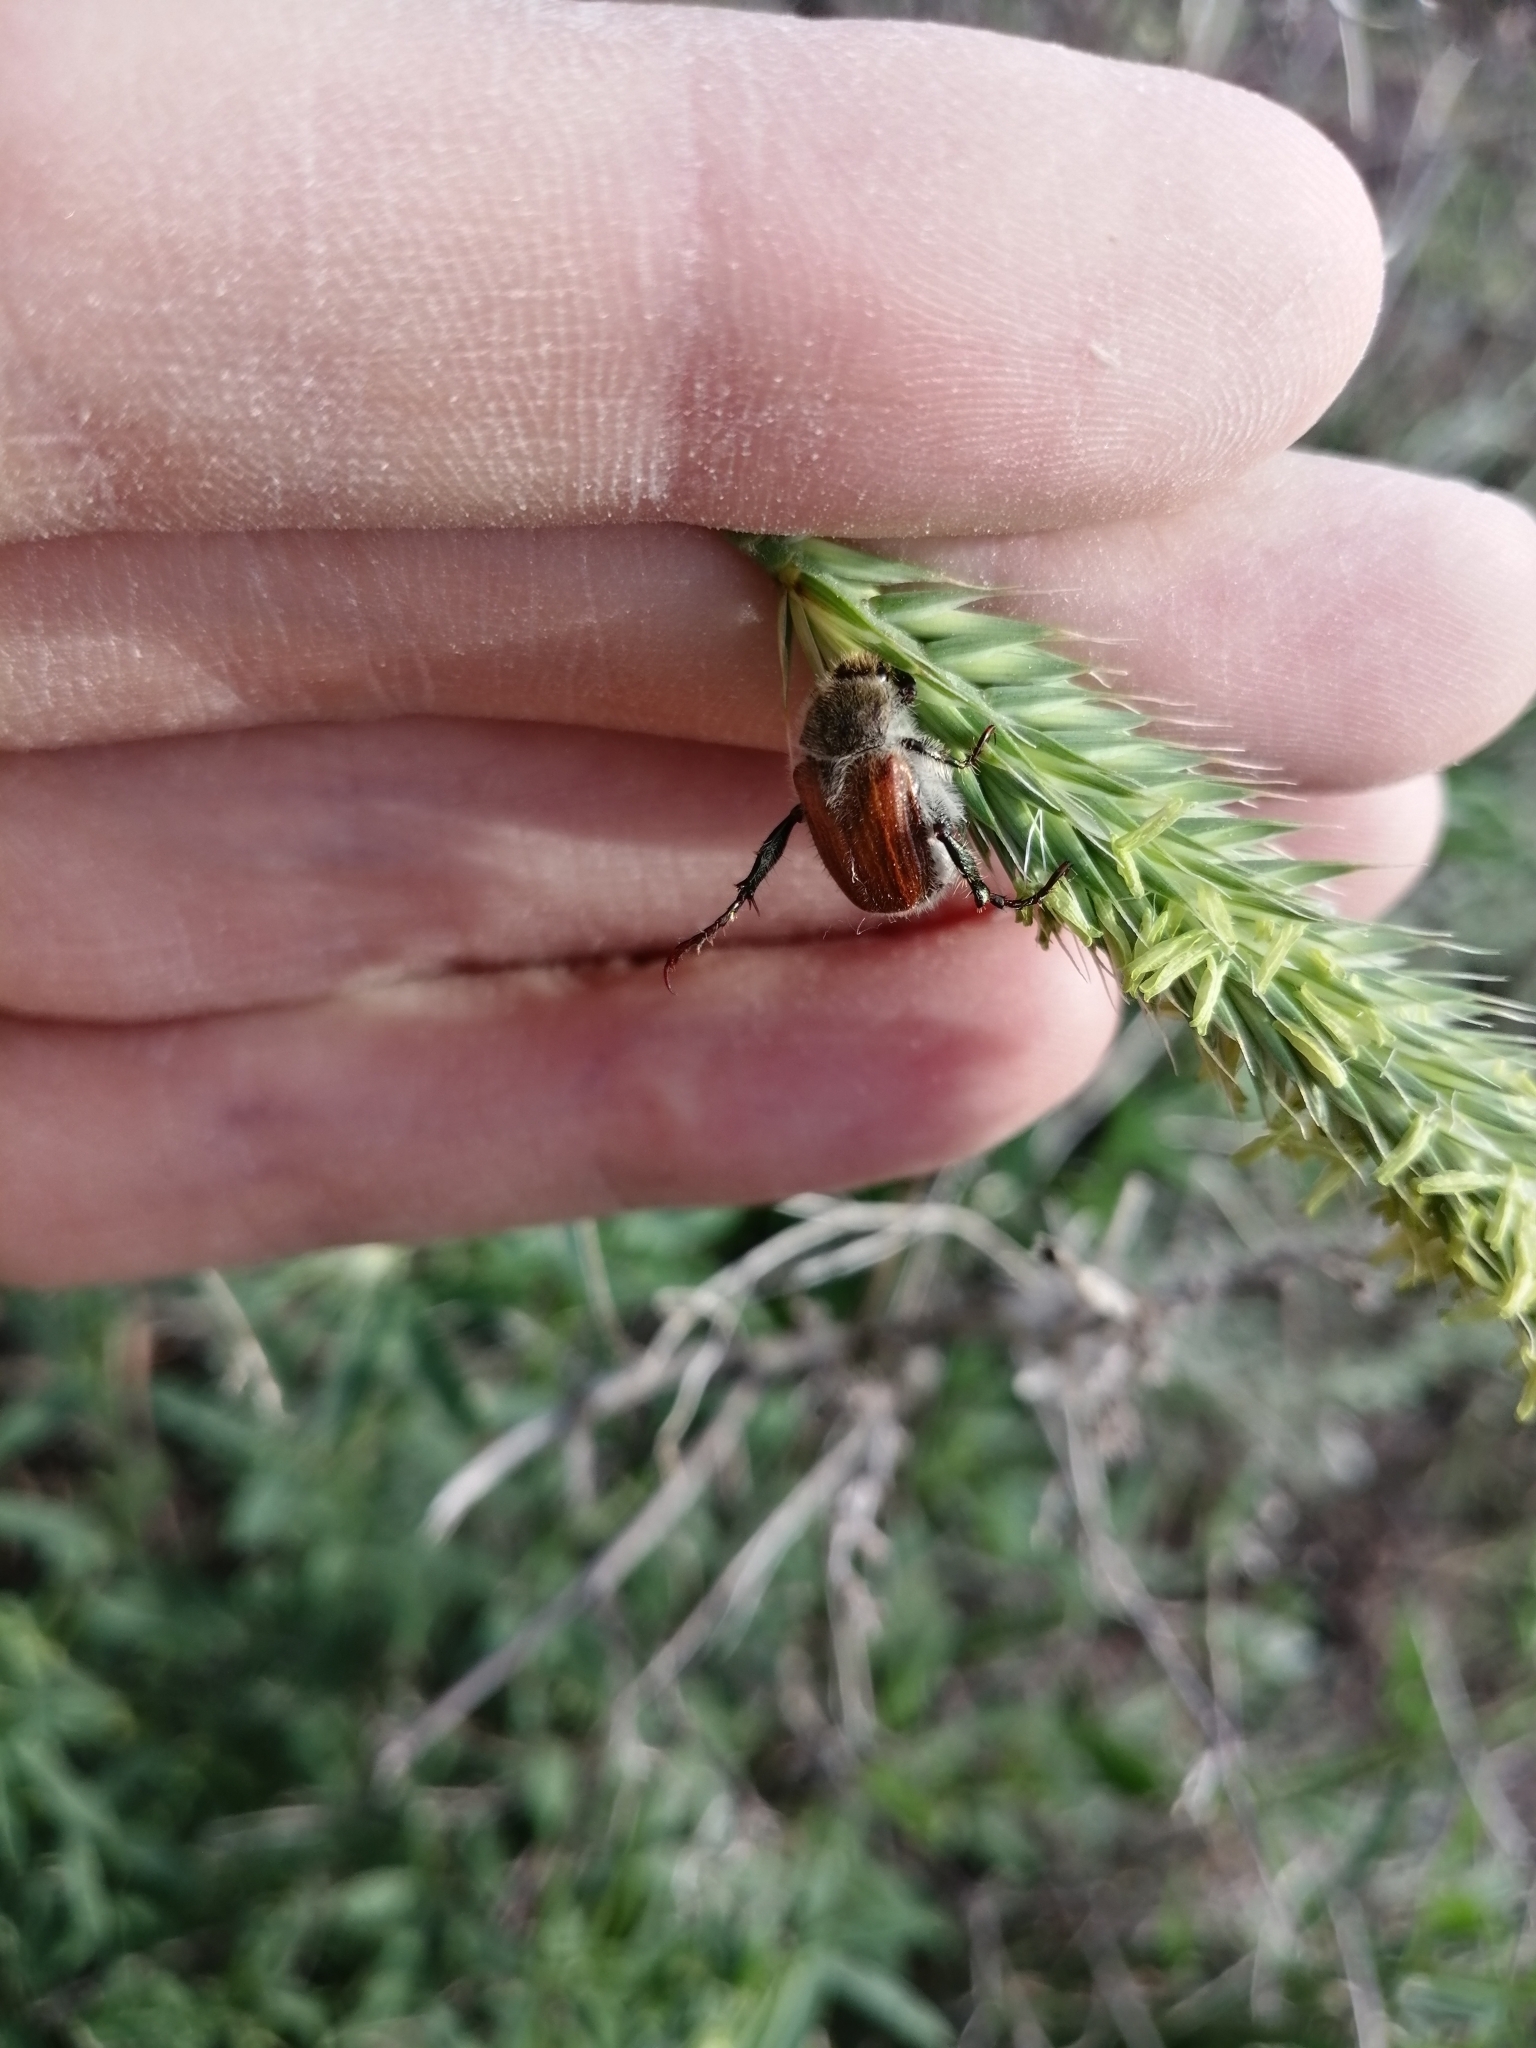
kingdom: Animalia
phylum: Arthropoda
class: Insecta
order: Coleoptera
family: Scarabaeidae
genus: Chaetopteroplia
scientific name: Chaetopteroplia segetum
